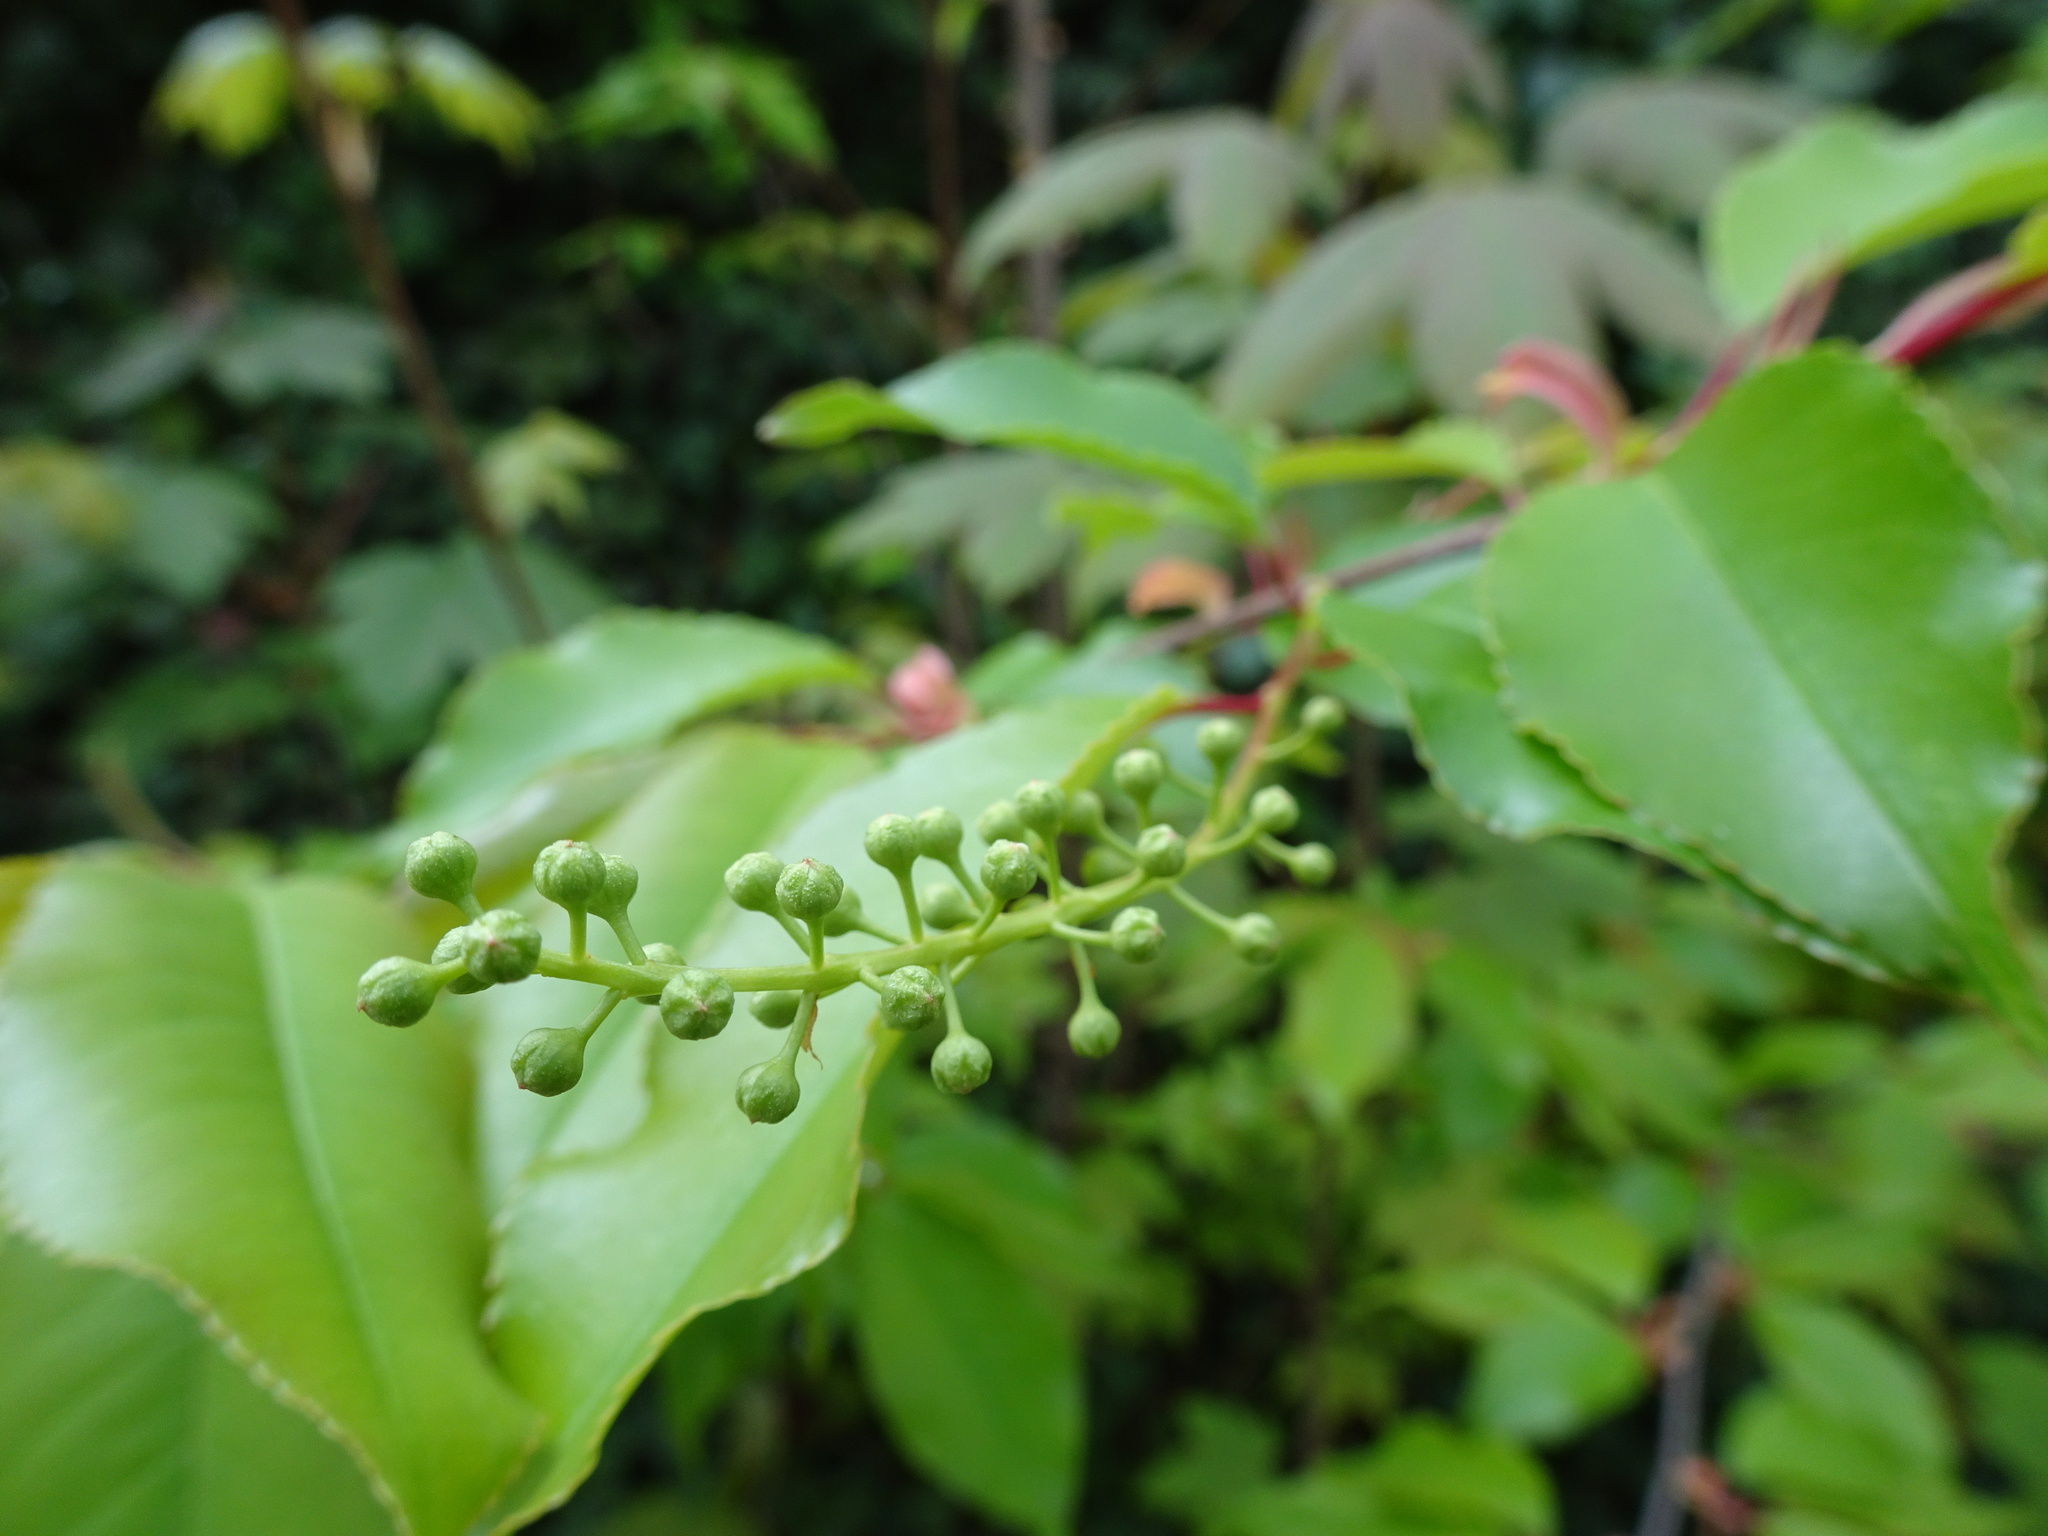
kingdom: Plantae
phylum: Tracheophyta
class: Magnoliopsida
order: Rosales
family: Rosaceae
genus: Prunus
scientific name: Prunus serotina
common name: Black cherry
